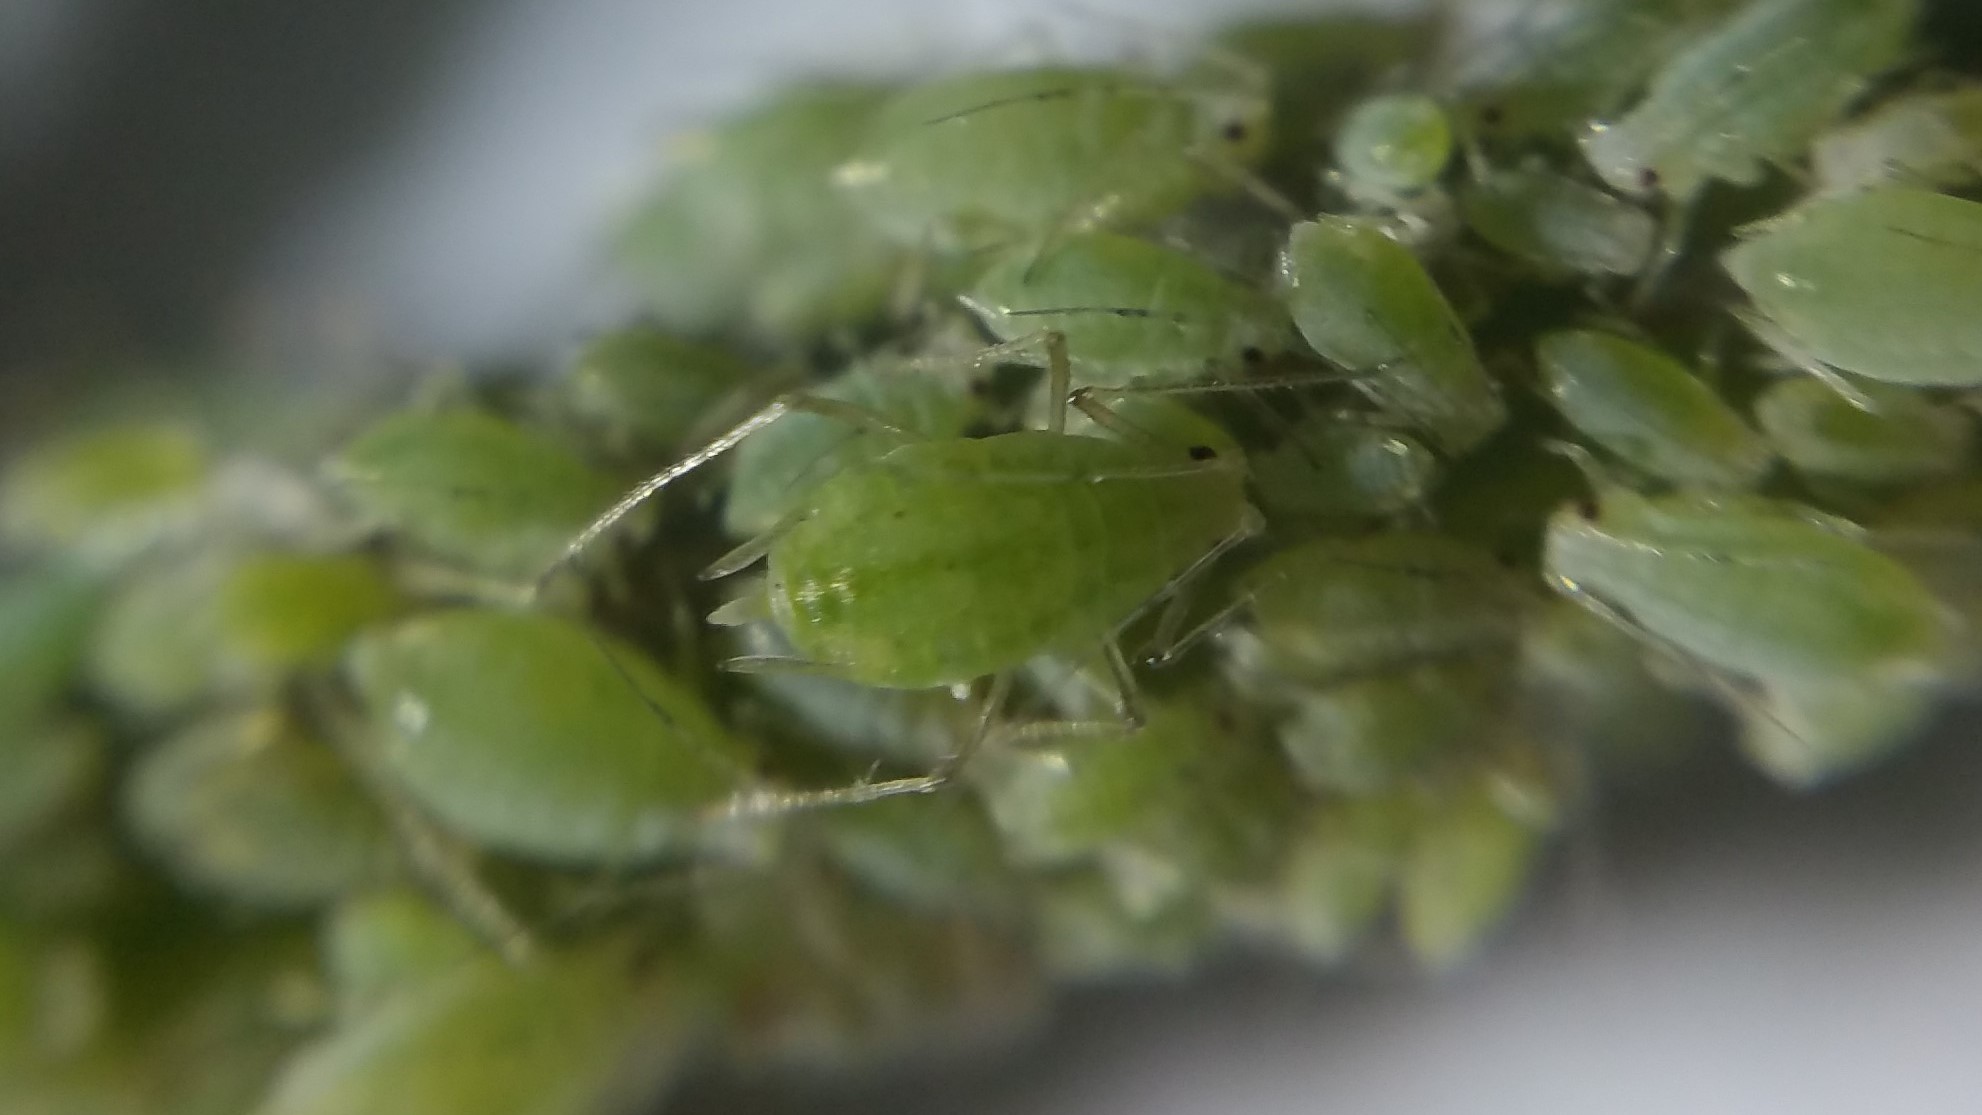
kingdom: Animalia
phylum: Arthropoda
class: Insecta
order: Hemiptera
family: Aphididae
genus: Hyperomyzus
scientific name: Hyperomyzus lactucae
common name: Sow thistle aphid
